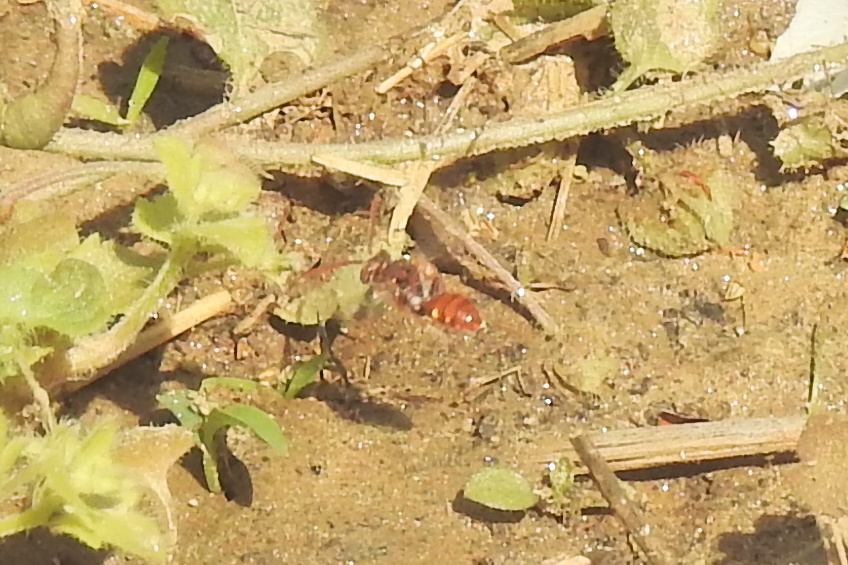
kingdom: Animalia
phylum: Arthropoda
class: Insecta
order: Hymenoptera
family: Apidae
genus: Nomada
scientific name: Nomada
